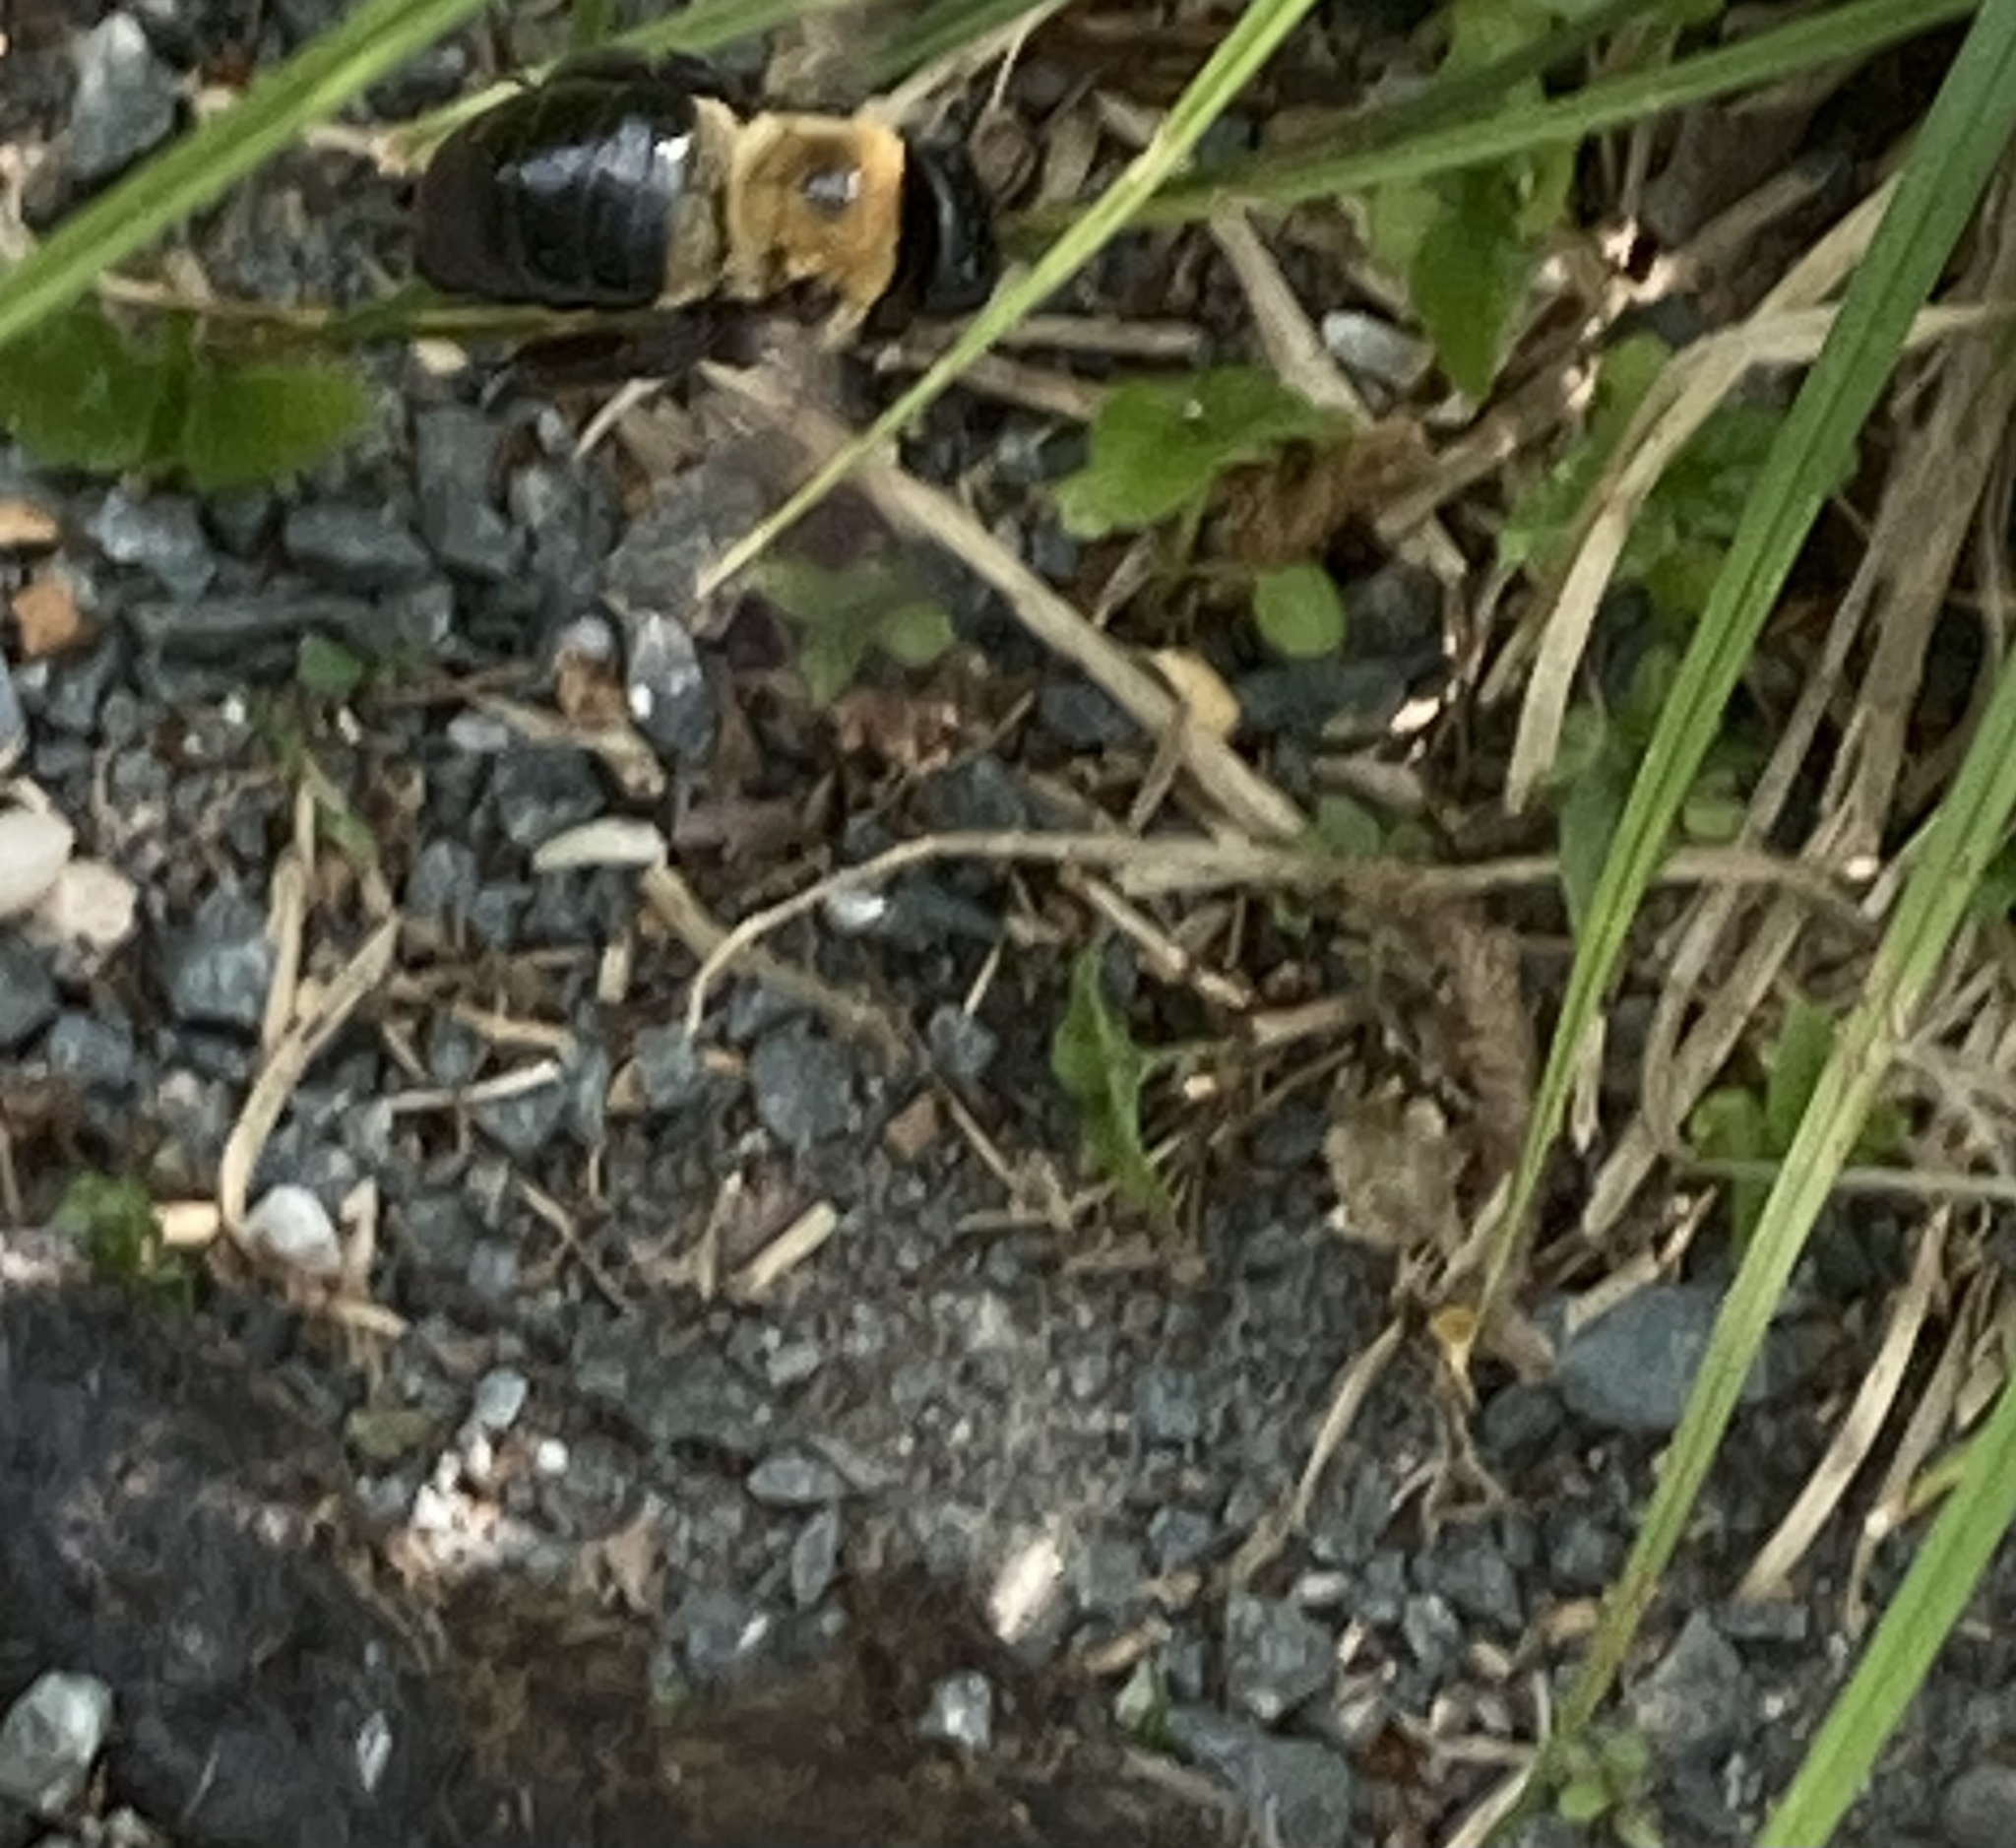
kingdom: Animalia
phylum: Arthropoda
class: Insecta
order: Hymenoptera
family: Apidae
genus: Xylocopa
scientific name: Xylocopa virginica
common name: Carpenter bee
